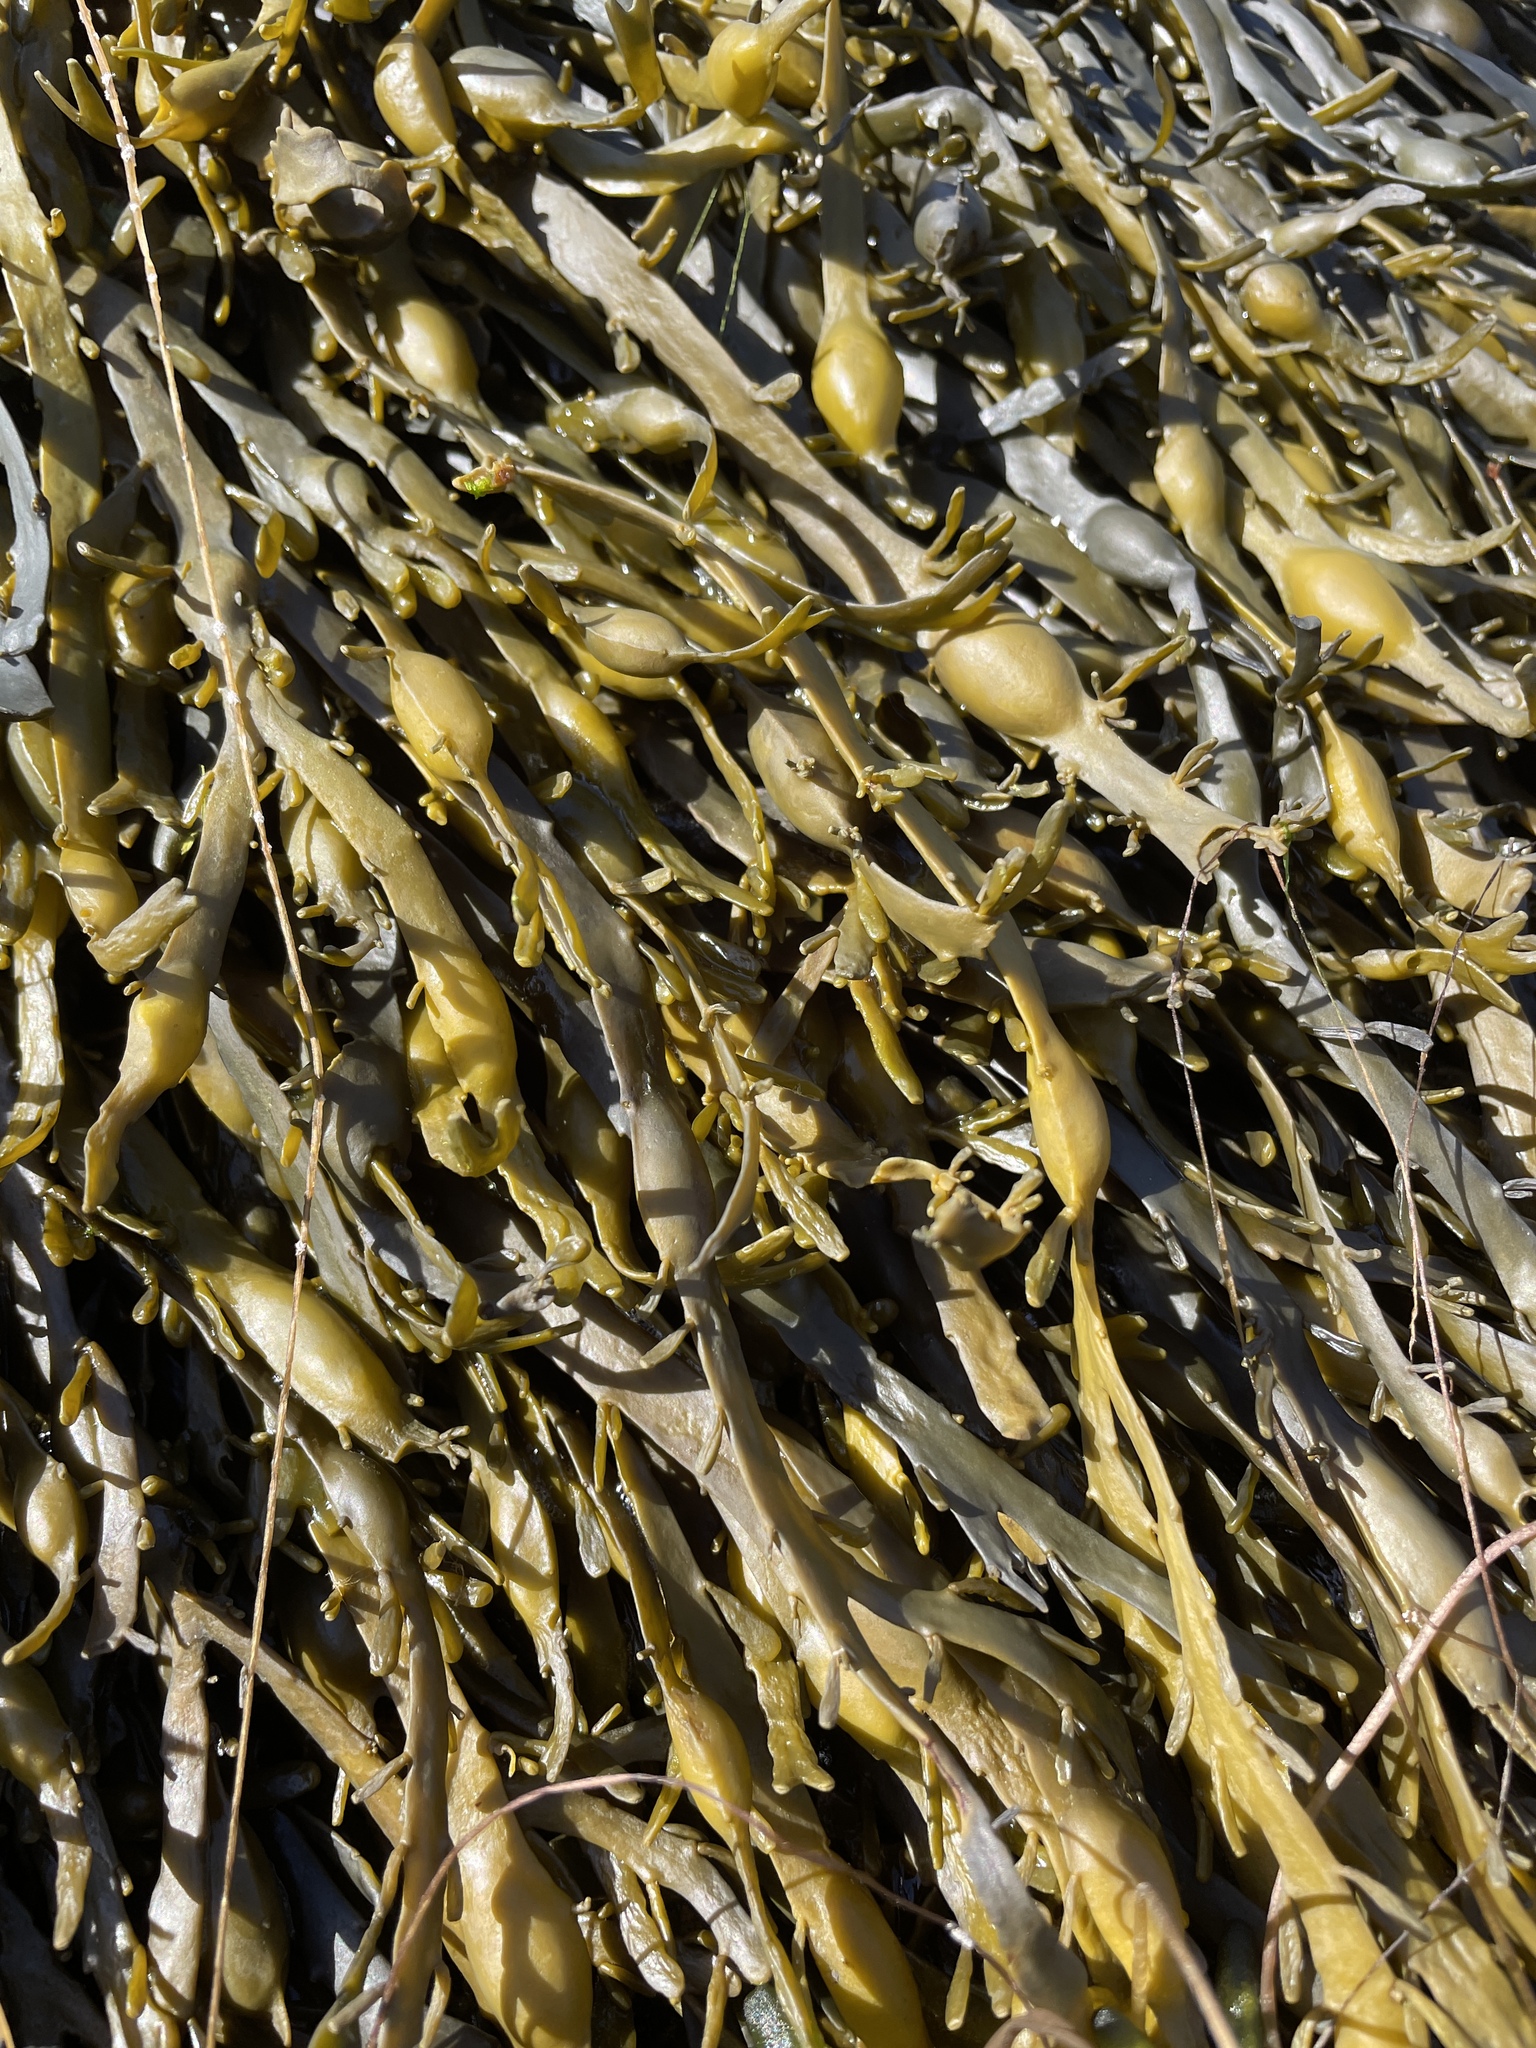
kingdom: Chromista
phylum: Ochrophyta
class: Phaeophyceae
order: Fucales
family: Fucaceae
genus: Ascophyllum
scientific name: Ascophyllum nodosum
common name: Knotted wrack
